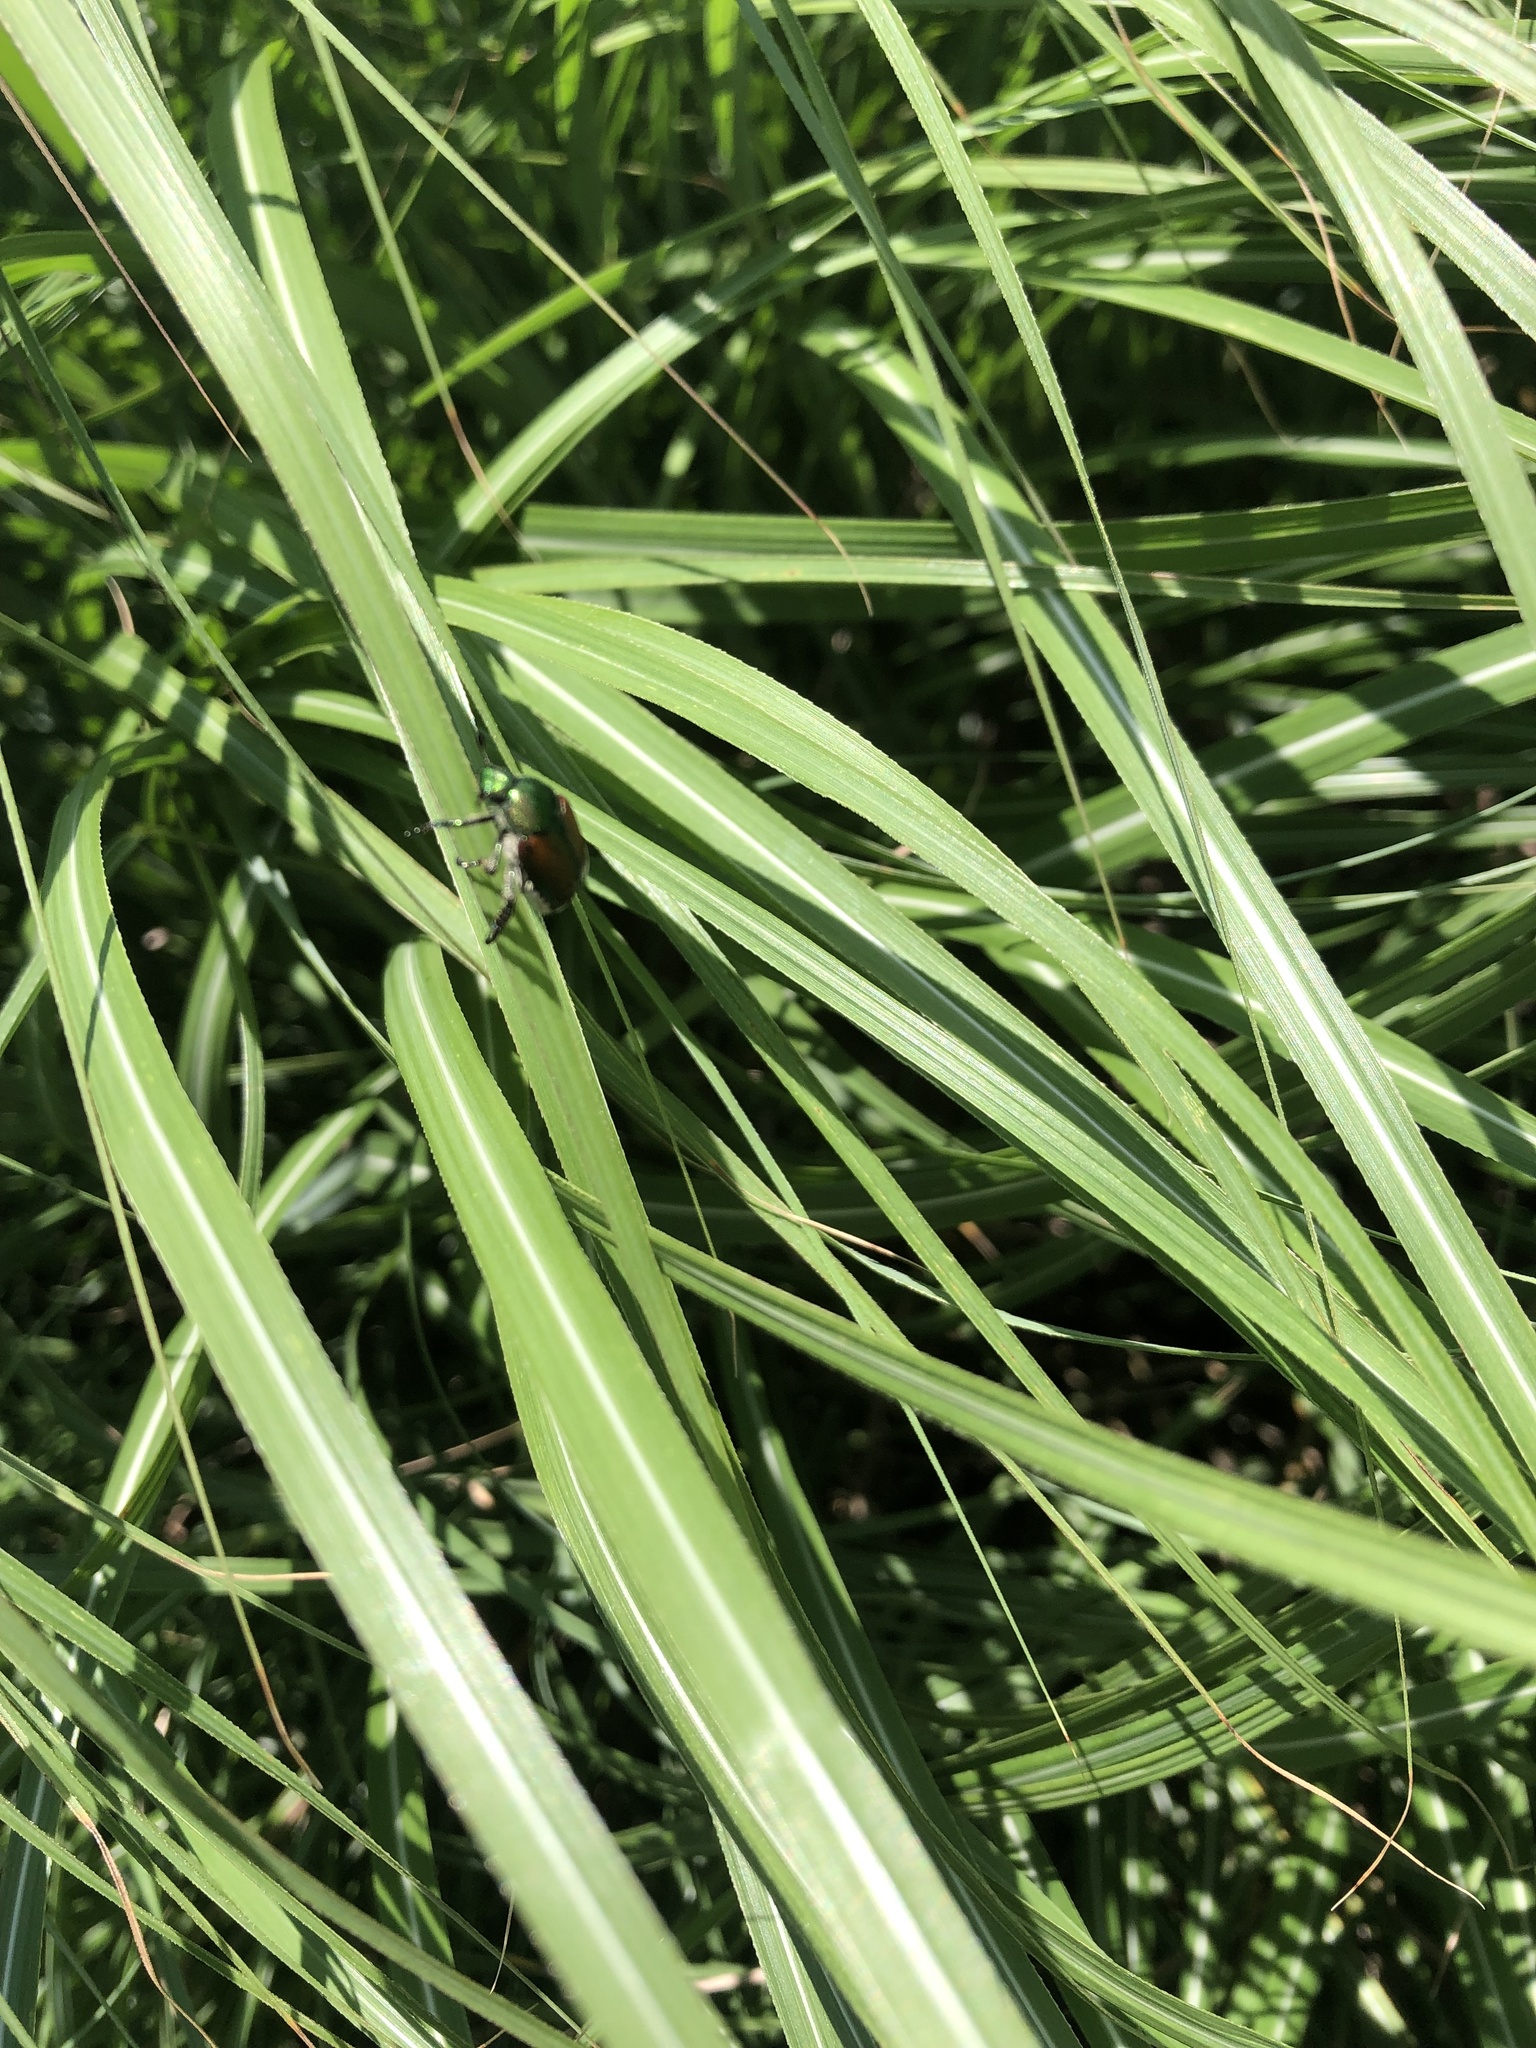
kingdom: Animalia
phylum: Arthropoda
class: Insecta
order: Coleoptera
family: Scarabaeidae
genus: Popillia
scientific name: Popillia japonica
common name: Japanese beetle
